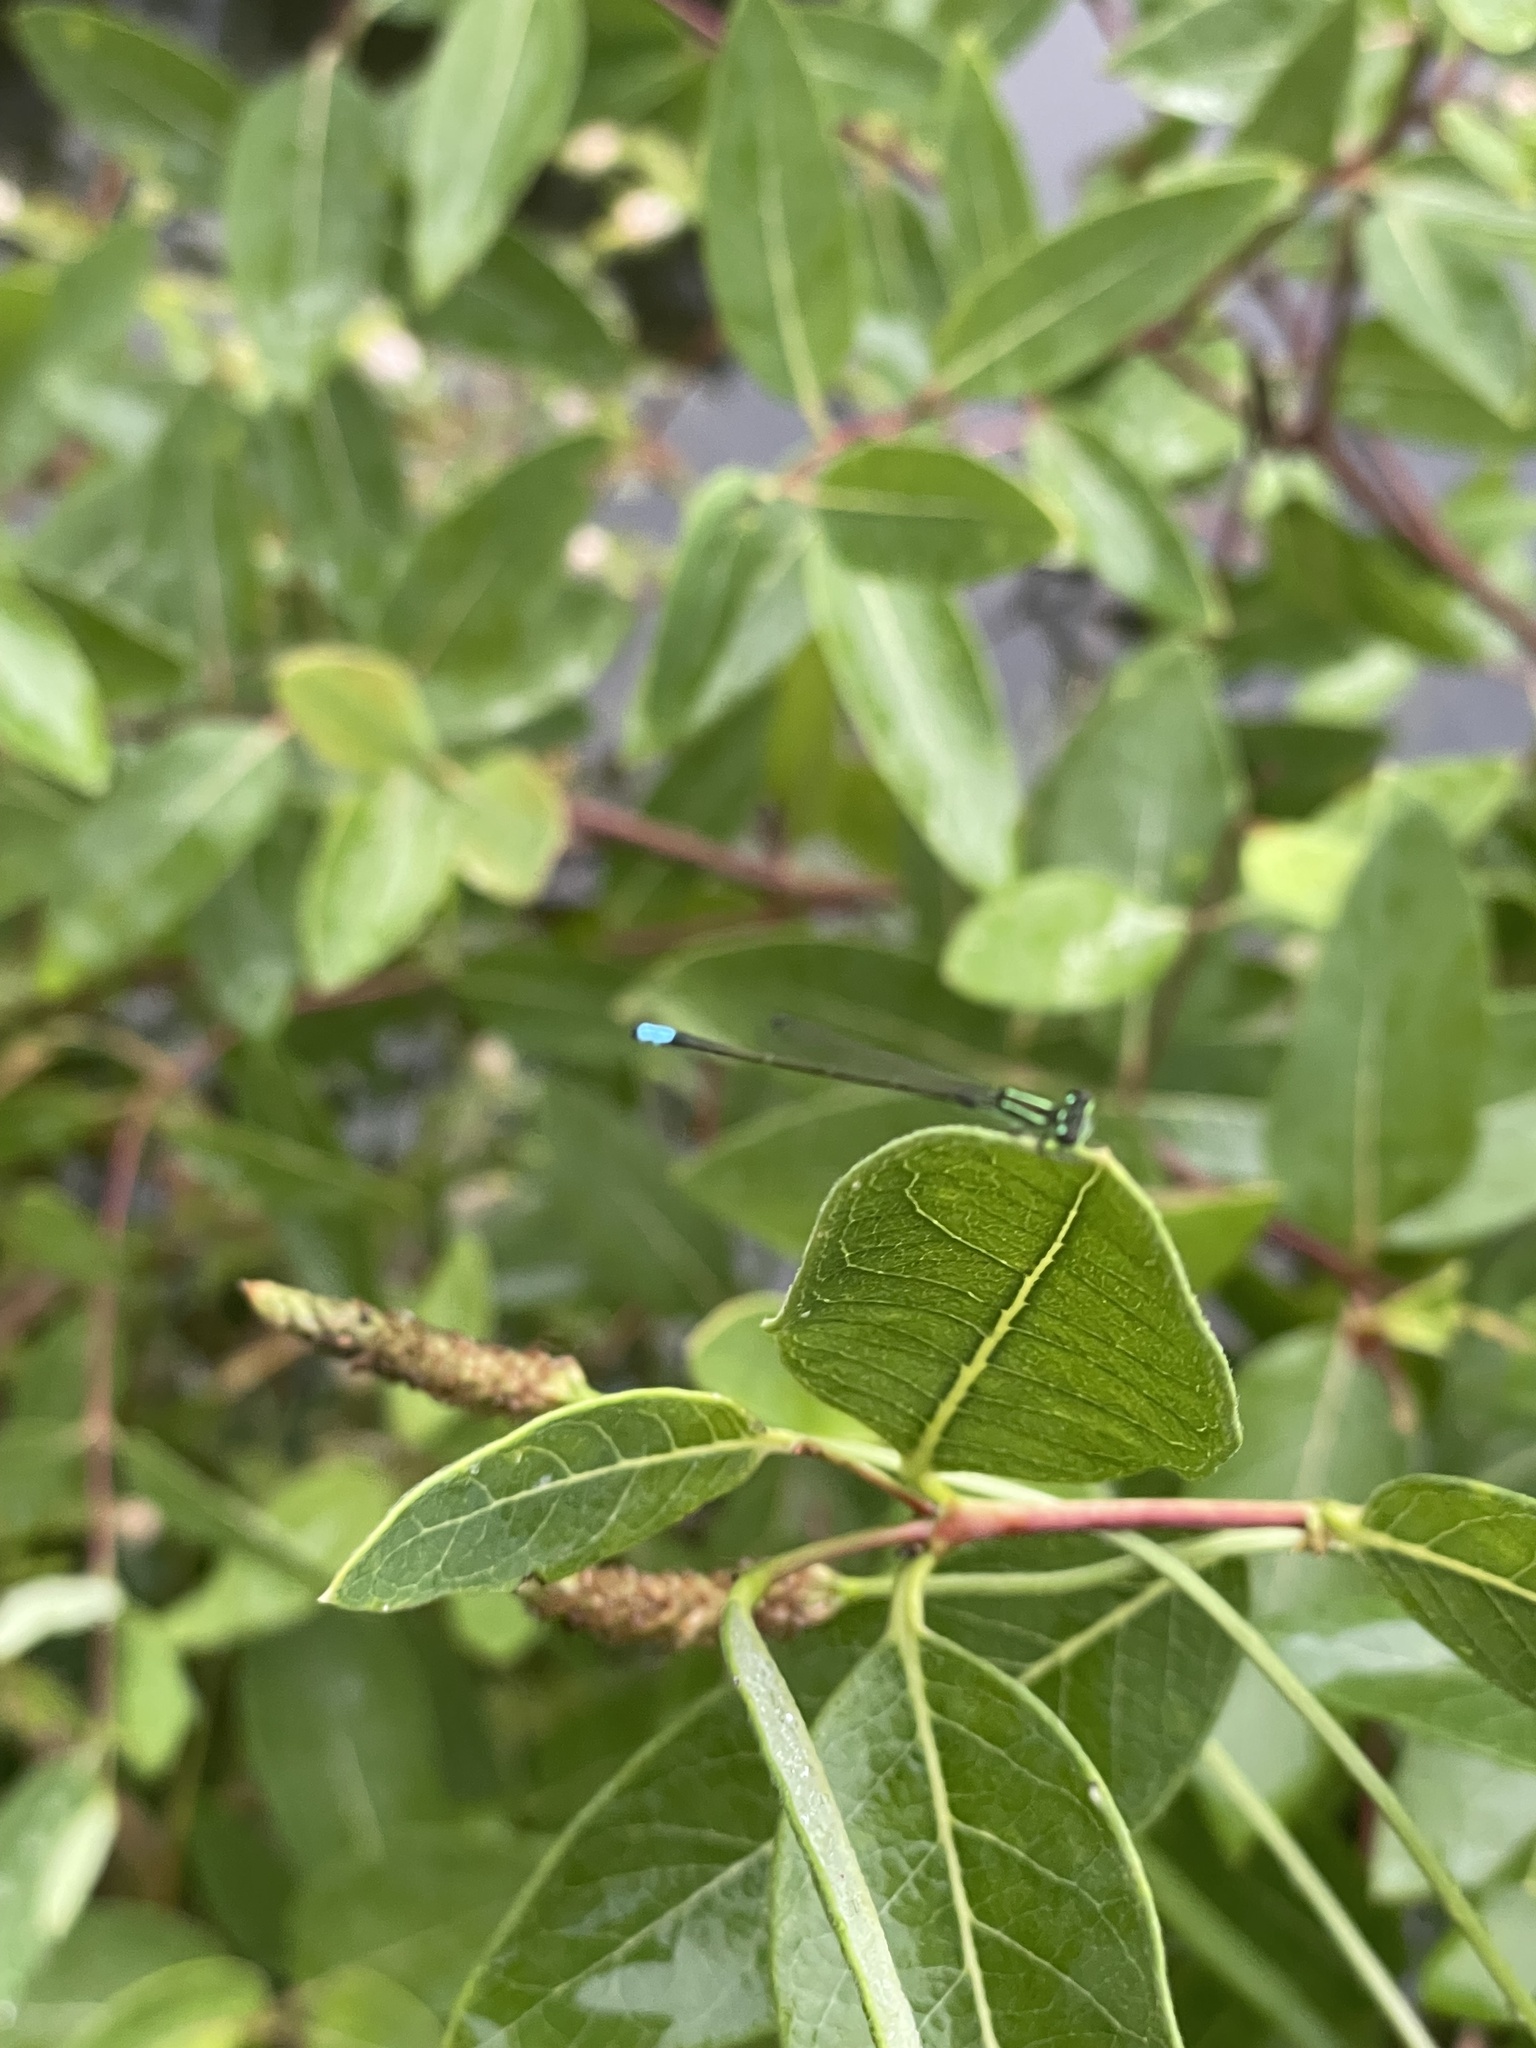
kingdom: Animalia
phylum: Arthropoda
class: Insecta
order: Odonata
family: Coenagrionidae
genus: Ischnura
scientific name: Ischnura verticalis
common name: Eastern forktail
